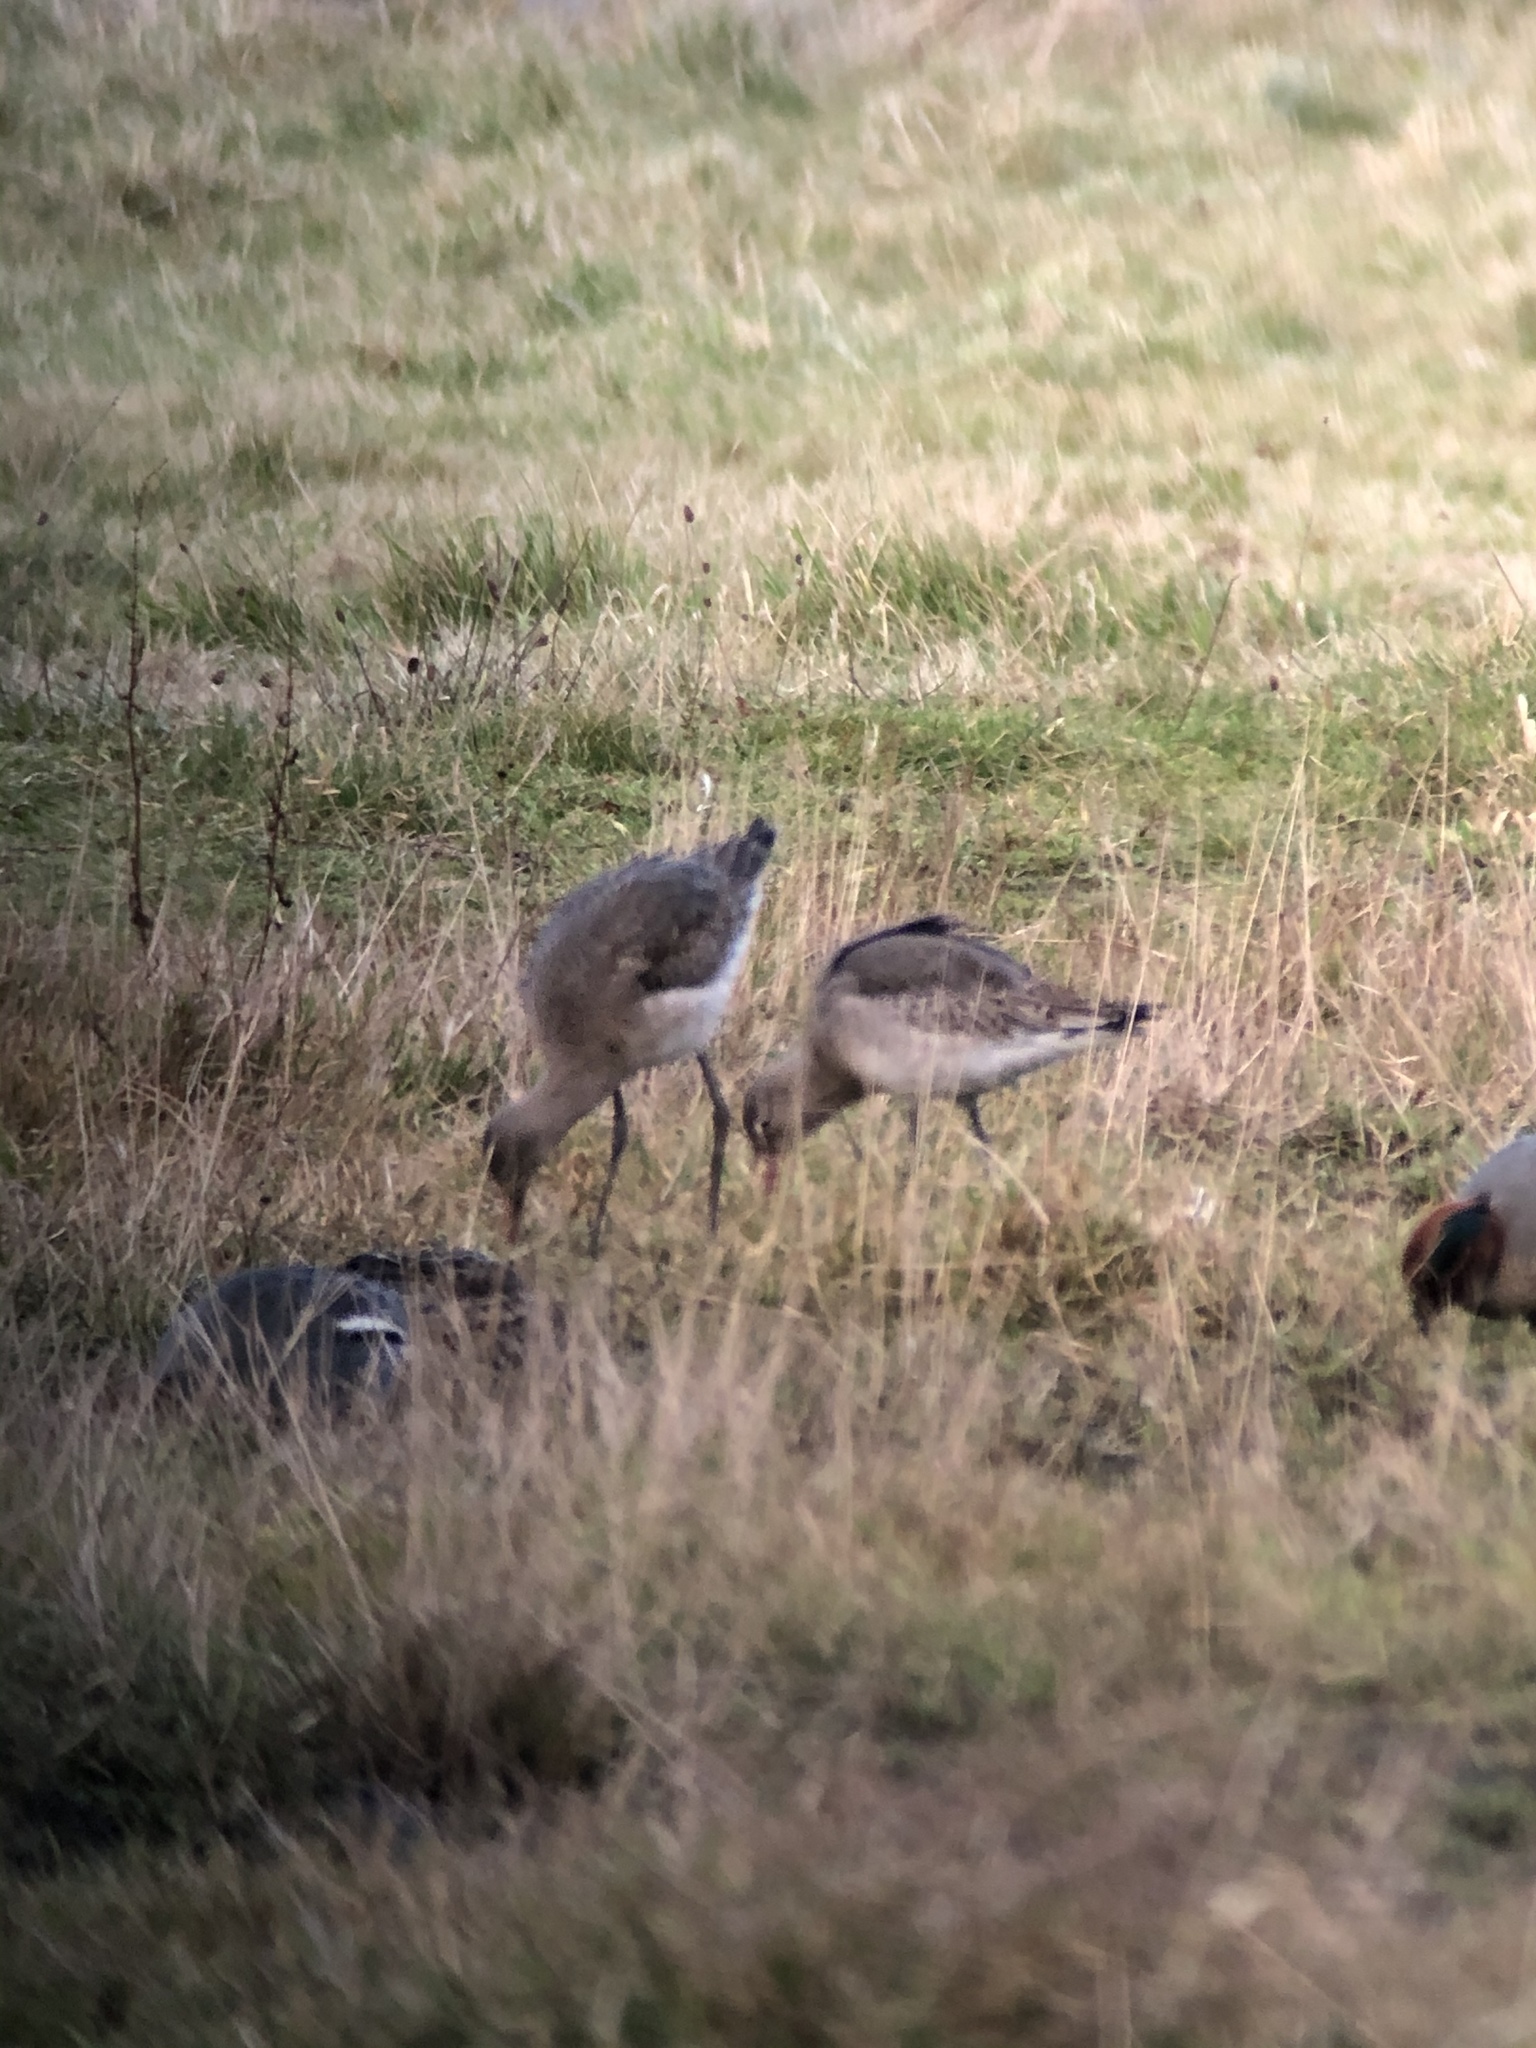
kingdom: Animalia
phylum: Chordata
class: Aves
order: Charadriiformes
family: Scolopacidae
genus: Limosa
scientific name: Limosa limosa
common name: Black-tailed godwit
